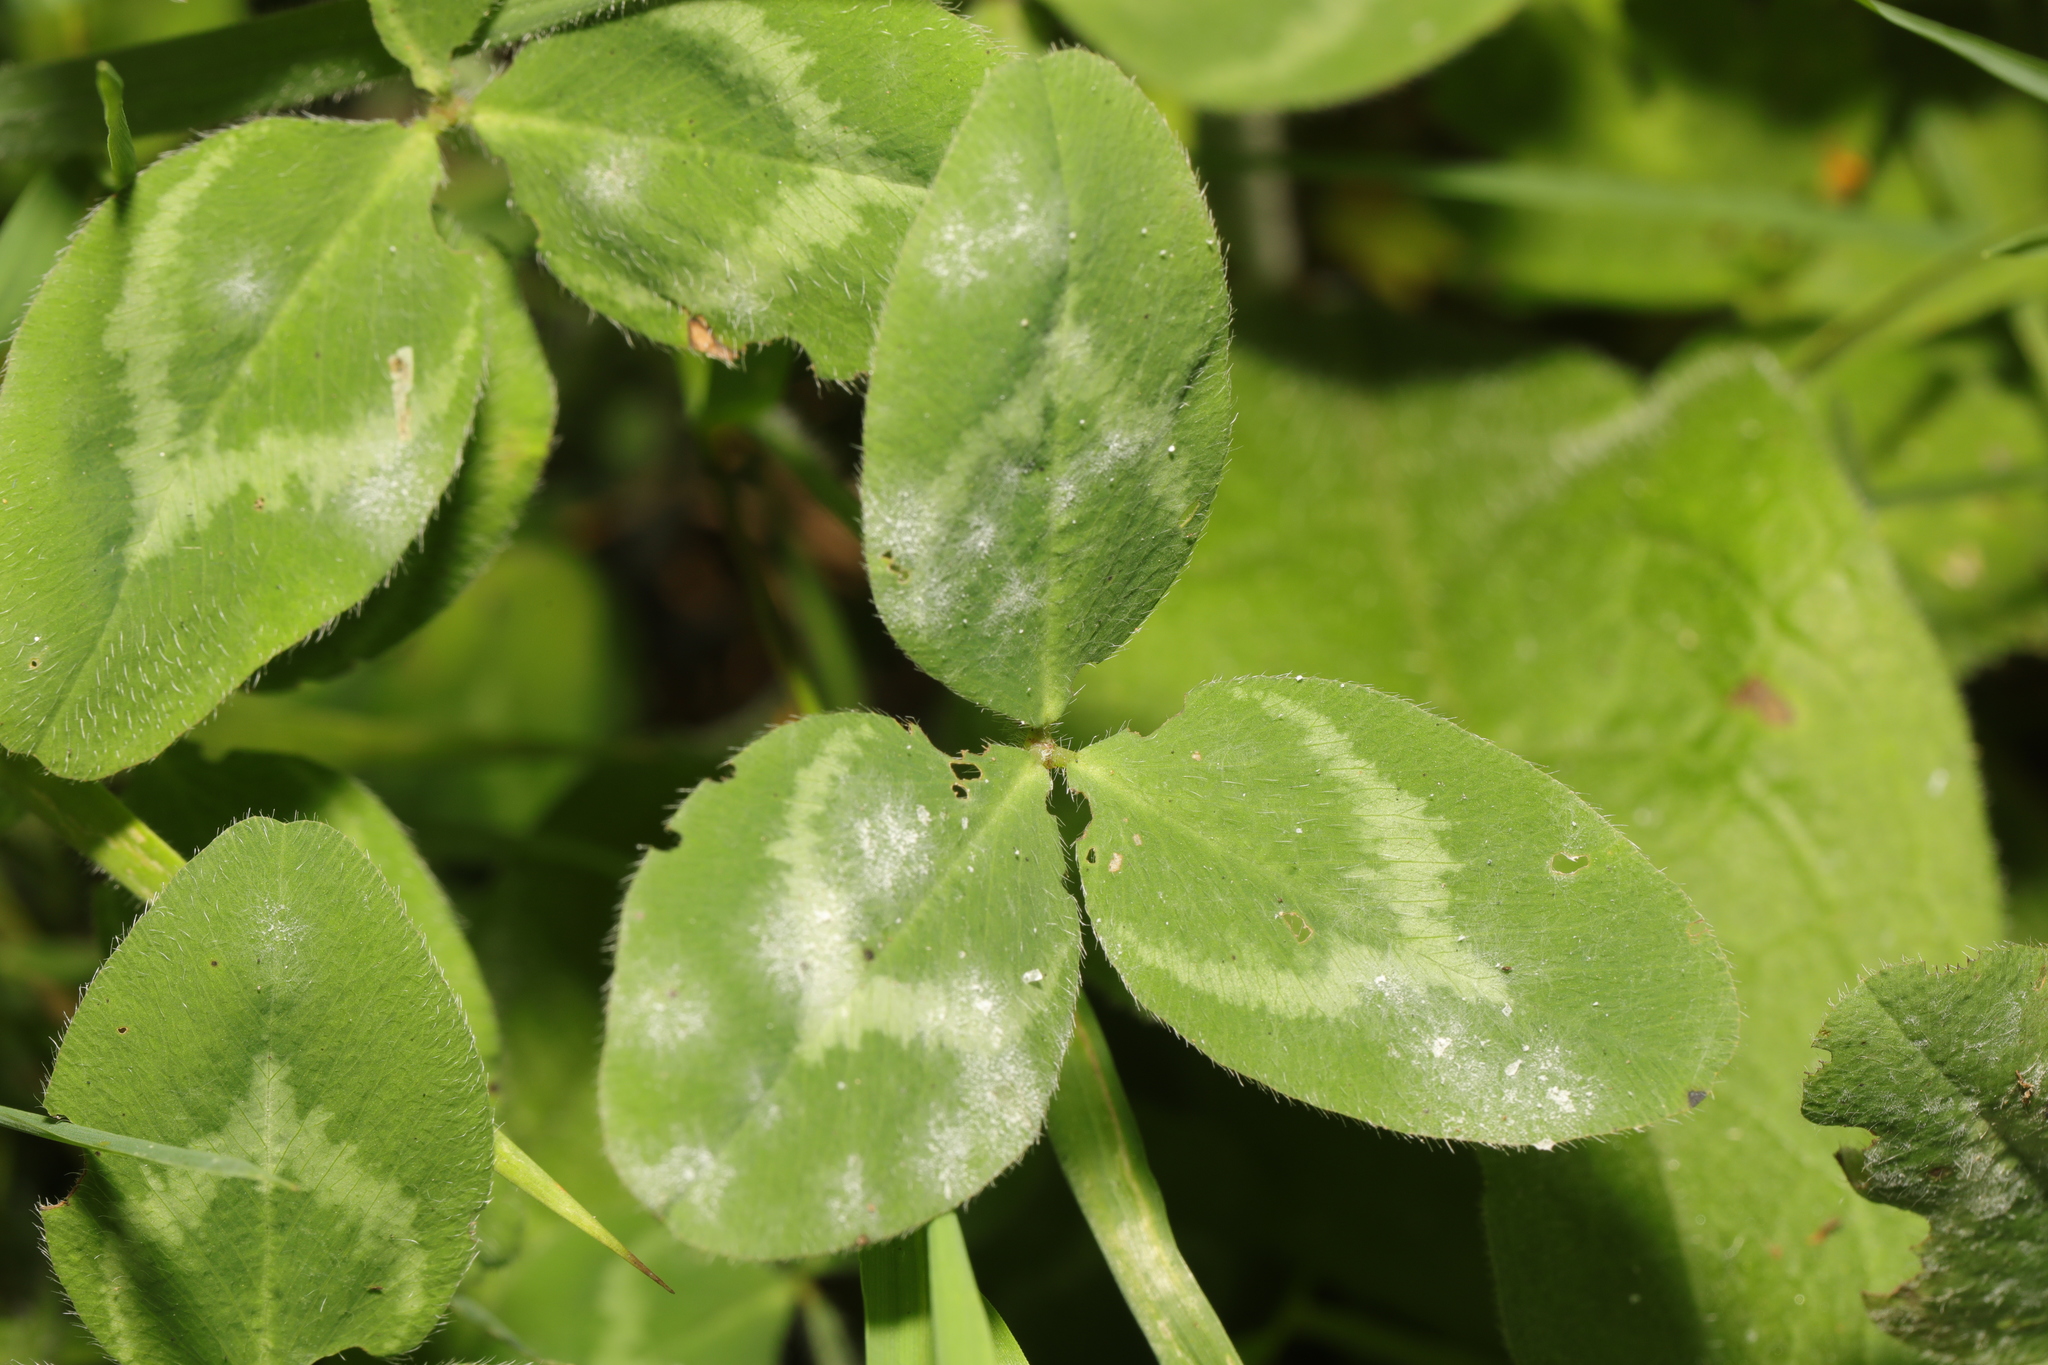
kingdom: Plantae
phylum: Tracheophyta
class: Magnoliopsida
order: Fabales
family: Fabaceae
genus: Trifolium
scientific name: Trifolium pratense
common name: Red clover
